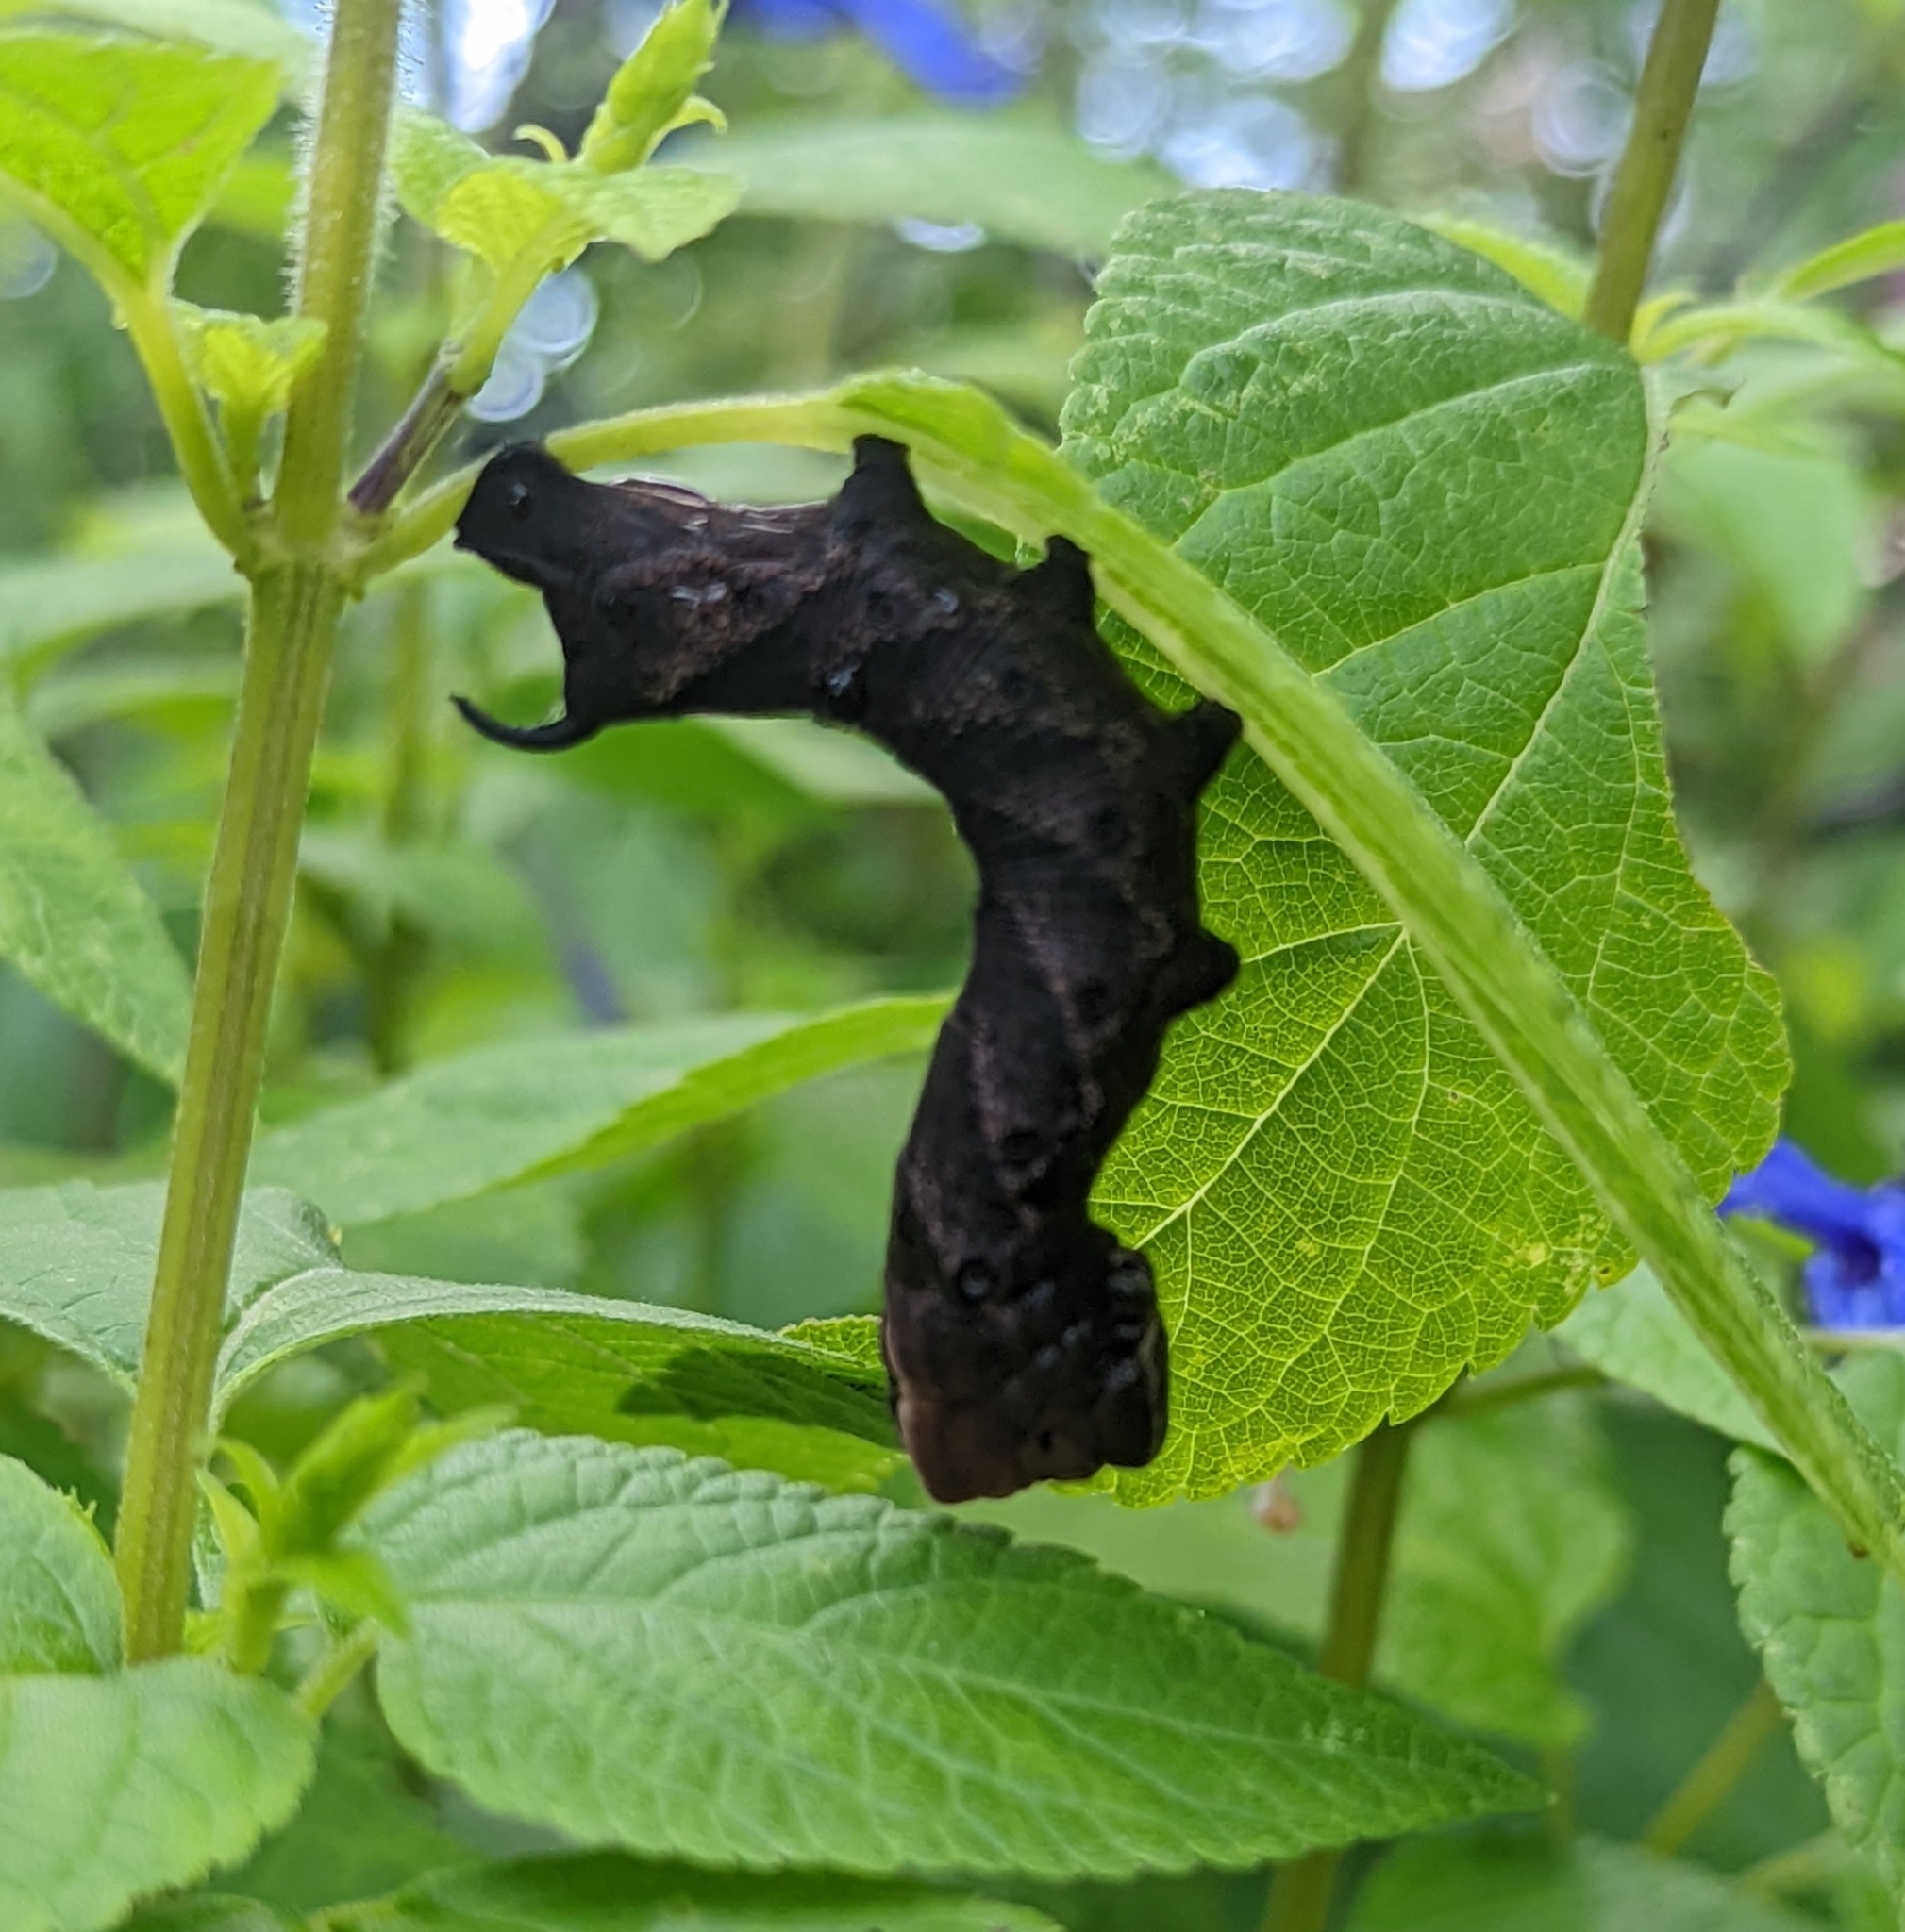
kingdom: Animalia
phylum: Arthropoda
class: Insecta
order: Lepidoptera
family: Sphingidae
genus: Lintneria
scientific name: Lintneria eremitus
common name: Hermit sphinx
